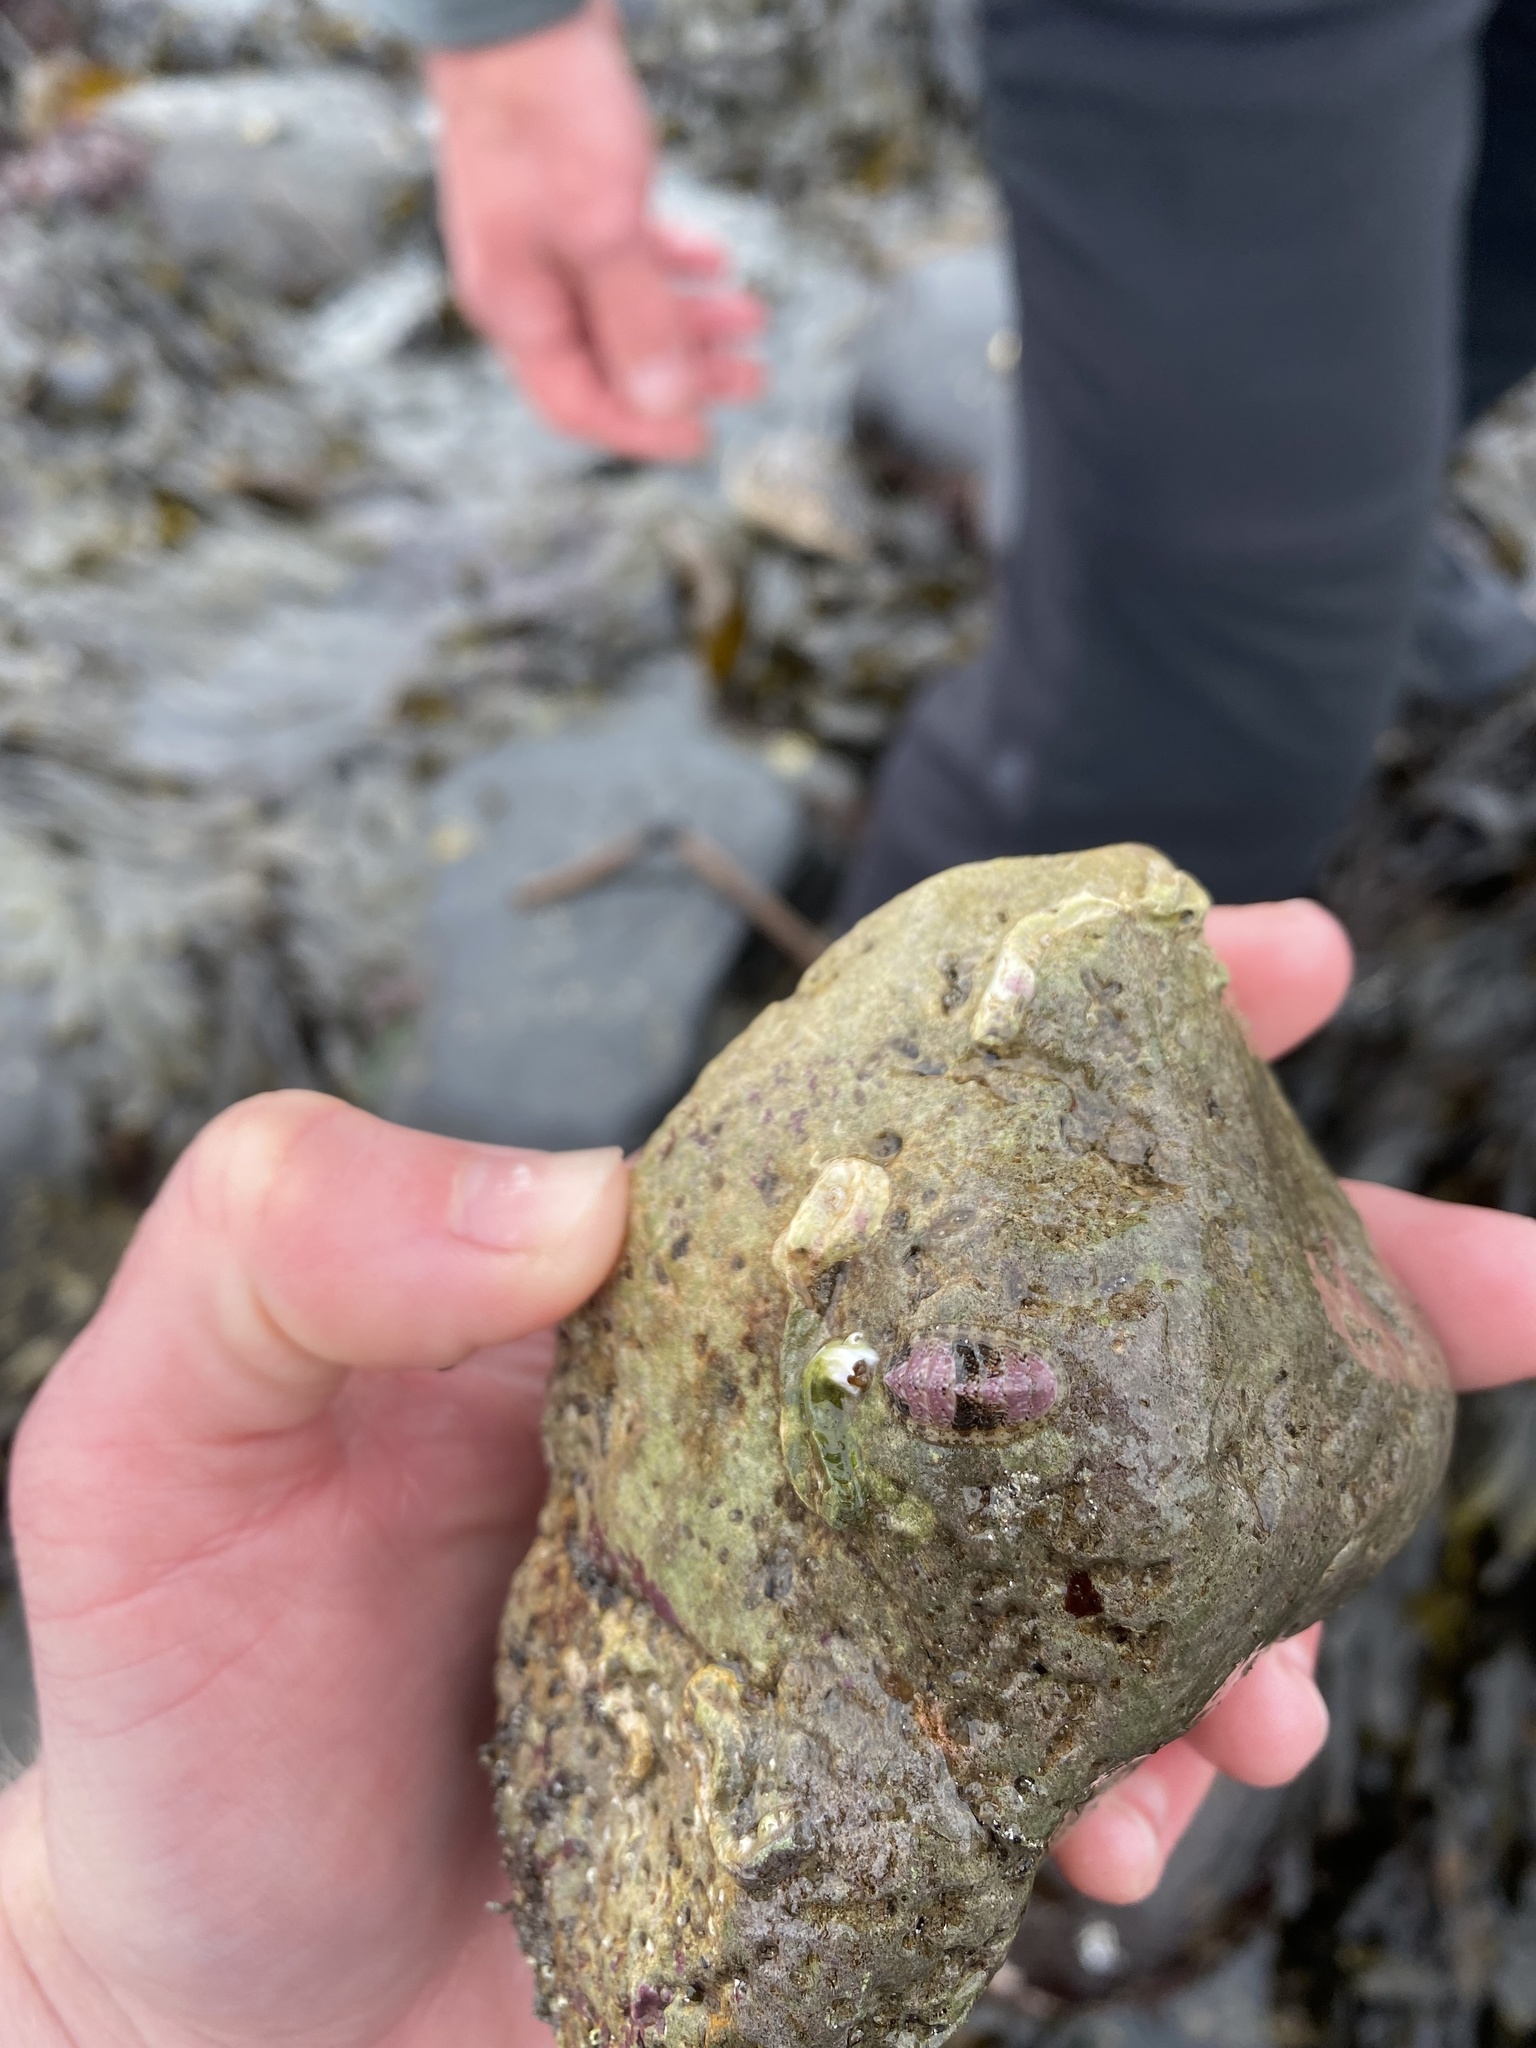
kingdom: Animalia
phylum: Mollusca
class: Polyplacophora
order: Chitonida
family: Tonicellidae
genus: Lepidochitona
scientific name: Lepidochitona cinerea
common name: Cinereous chiton
